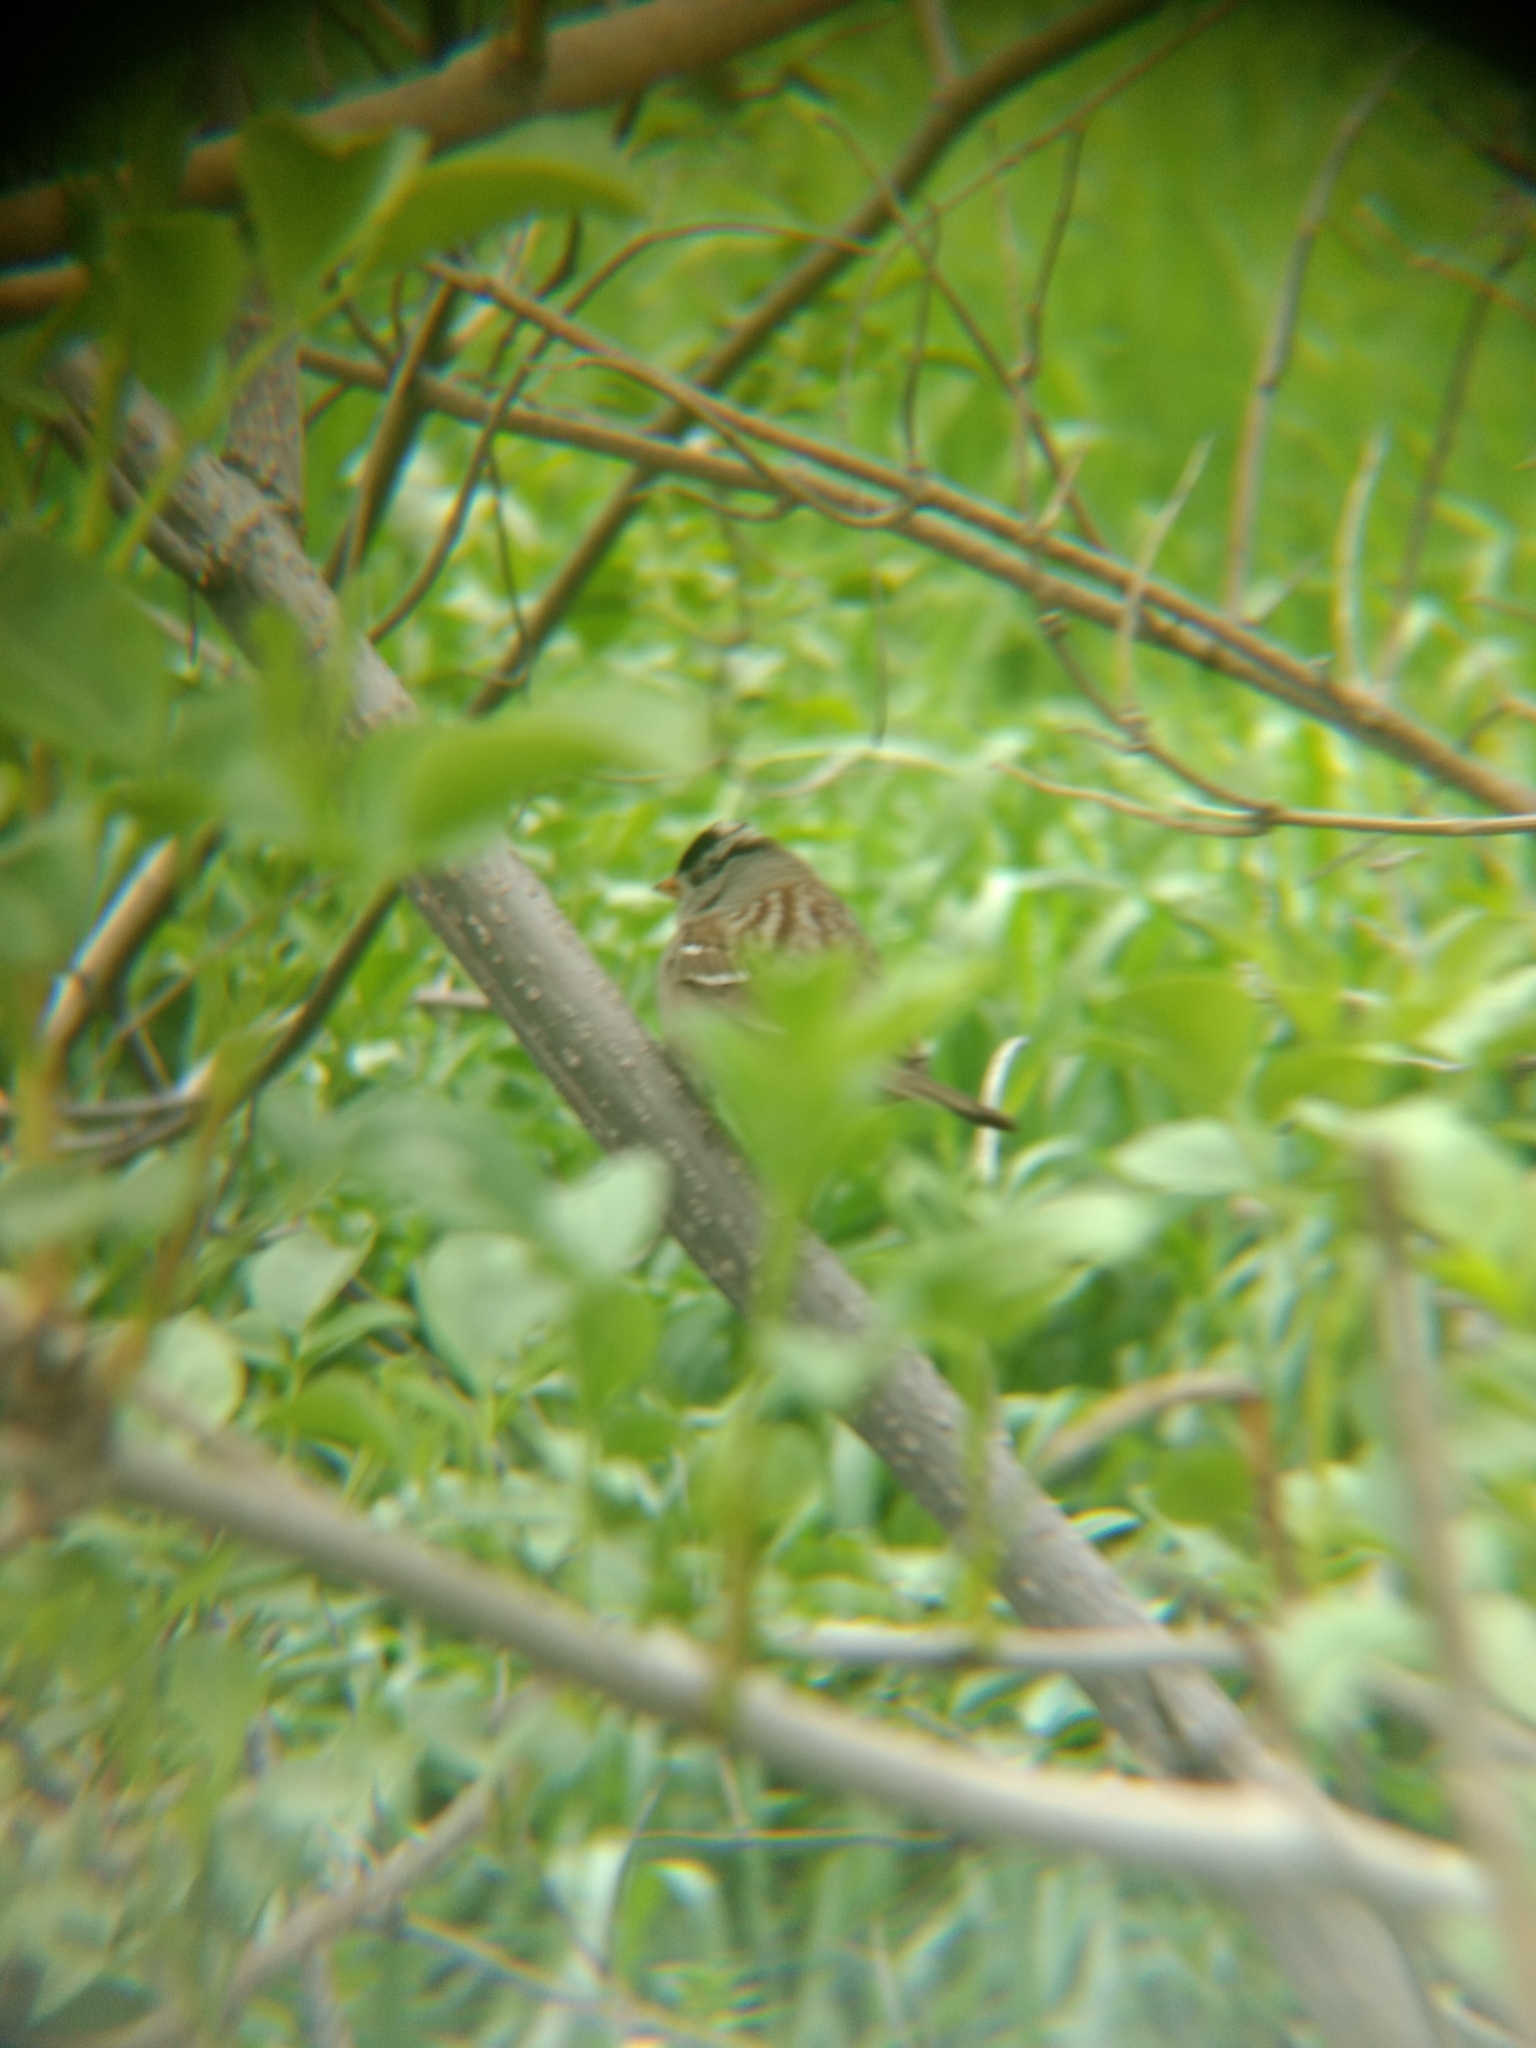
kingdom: Animalia
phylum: Chordata
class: Aves
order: Passeriformes
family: Passerellidae
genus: Zonotrichia
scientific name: Zonotrichia leucophrys
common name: White-crowned sparrow
